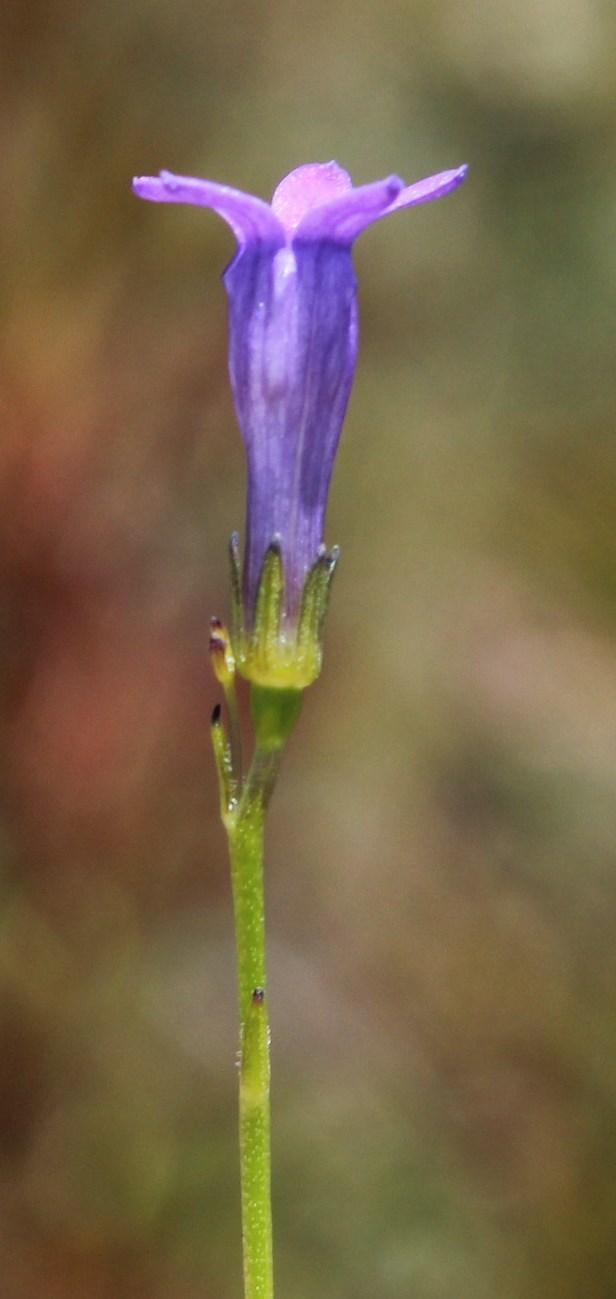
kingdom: Plantae
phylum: Tracheophyta
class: Magnoliopsida
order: Asterales
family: Campanulaceae
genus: Siphocodon
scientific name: Siphocodon spartioides
